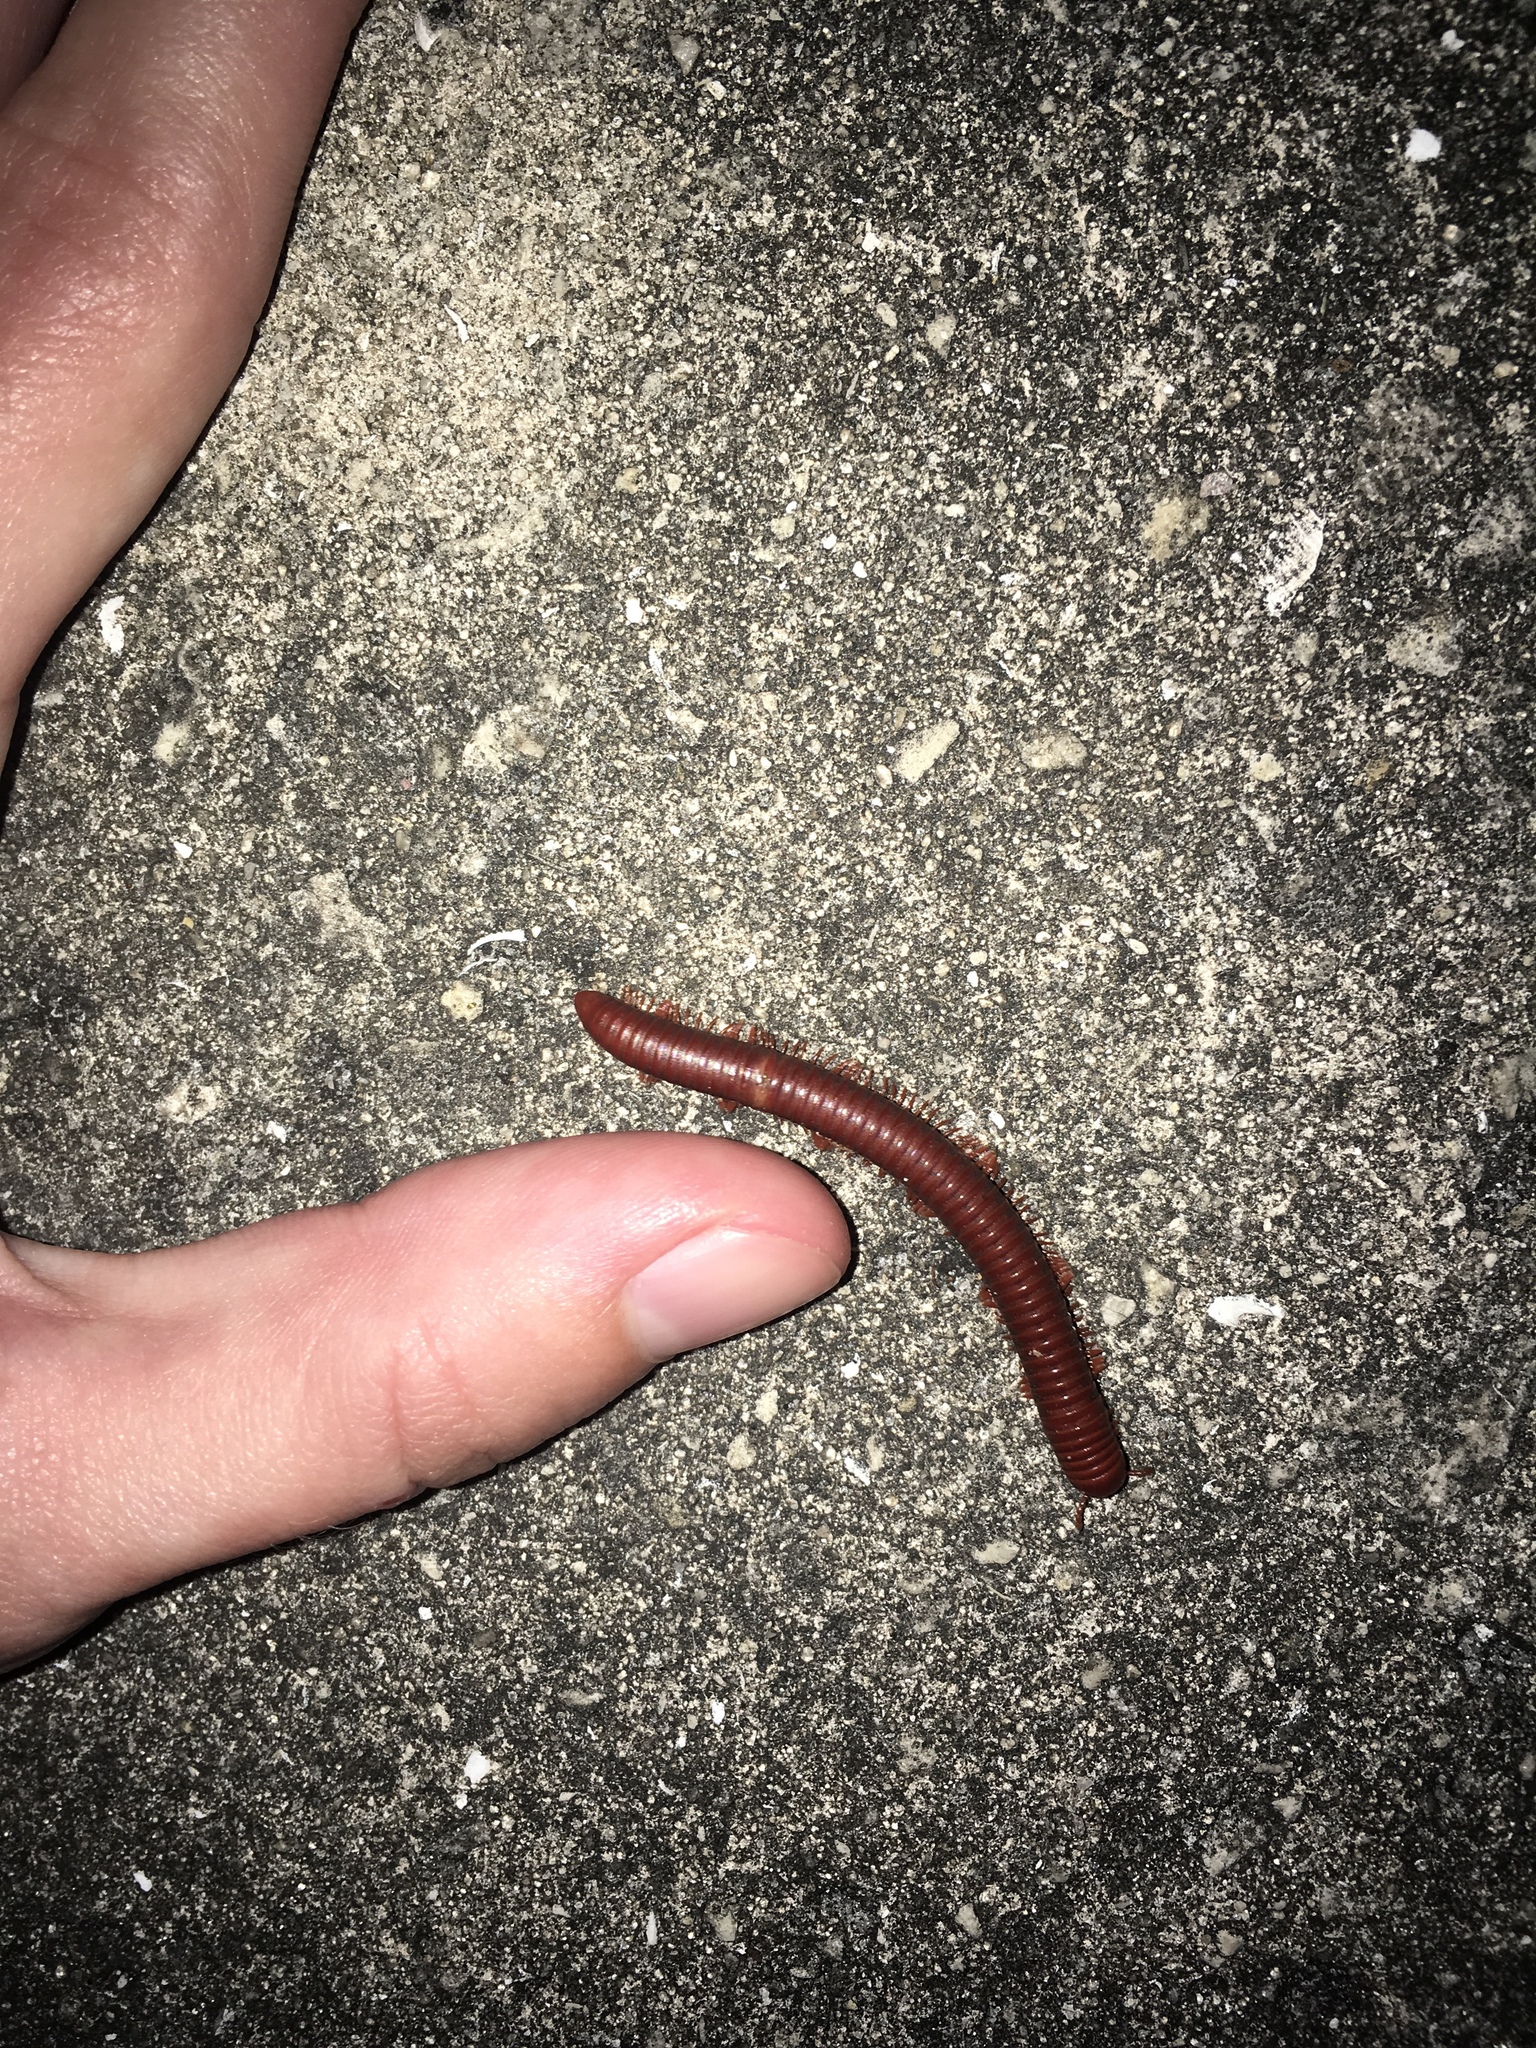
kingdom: Animalia
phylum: Arthropoda
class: Diplopoda
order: Spirobolida
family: Pachybolidae
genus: Trigoniulus
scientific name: Trigoniulus corallinus
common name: Millipede
